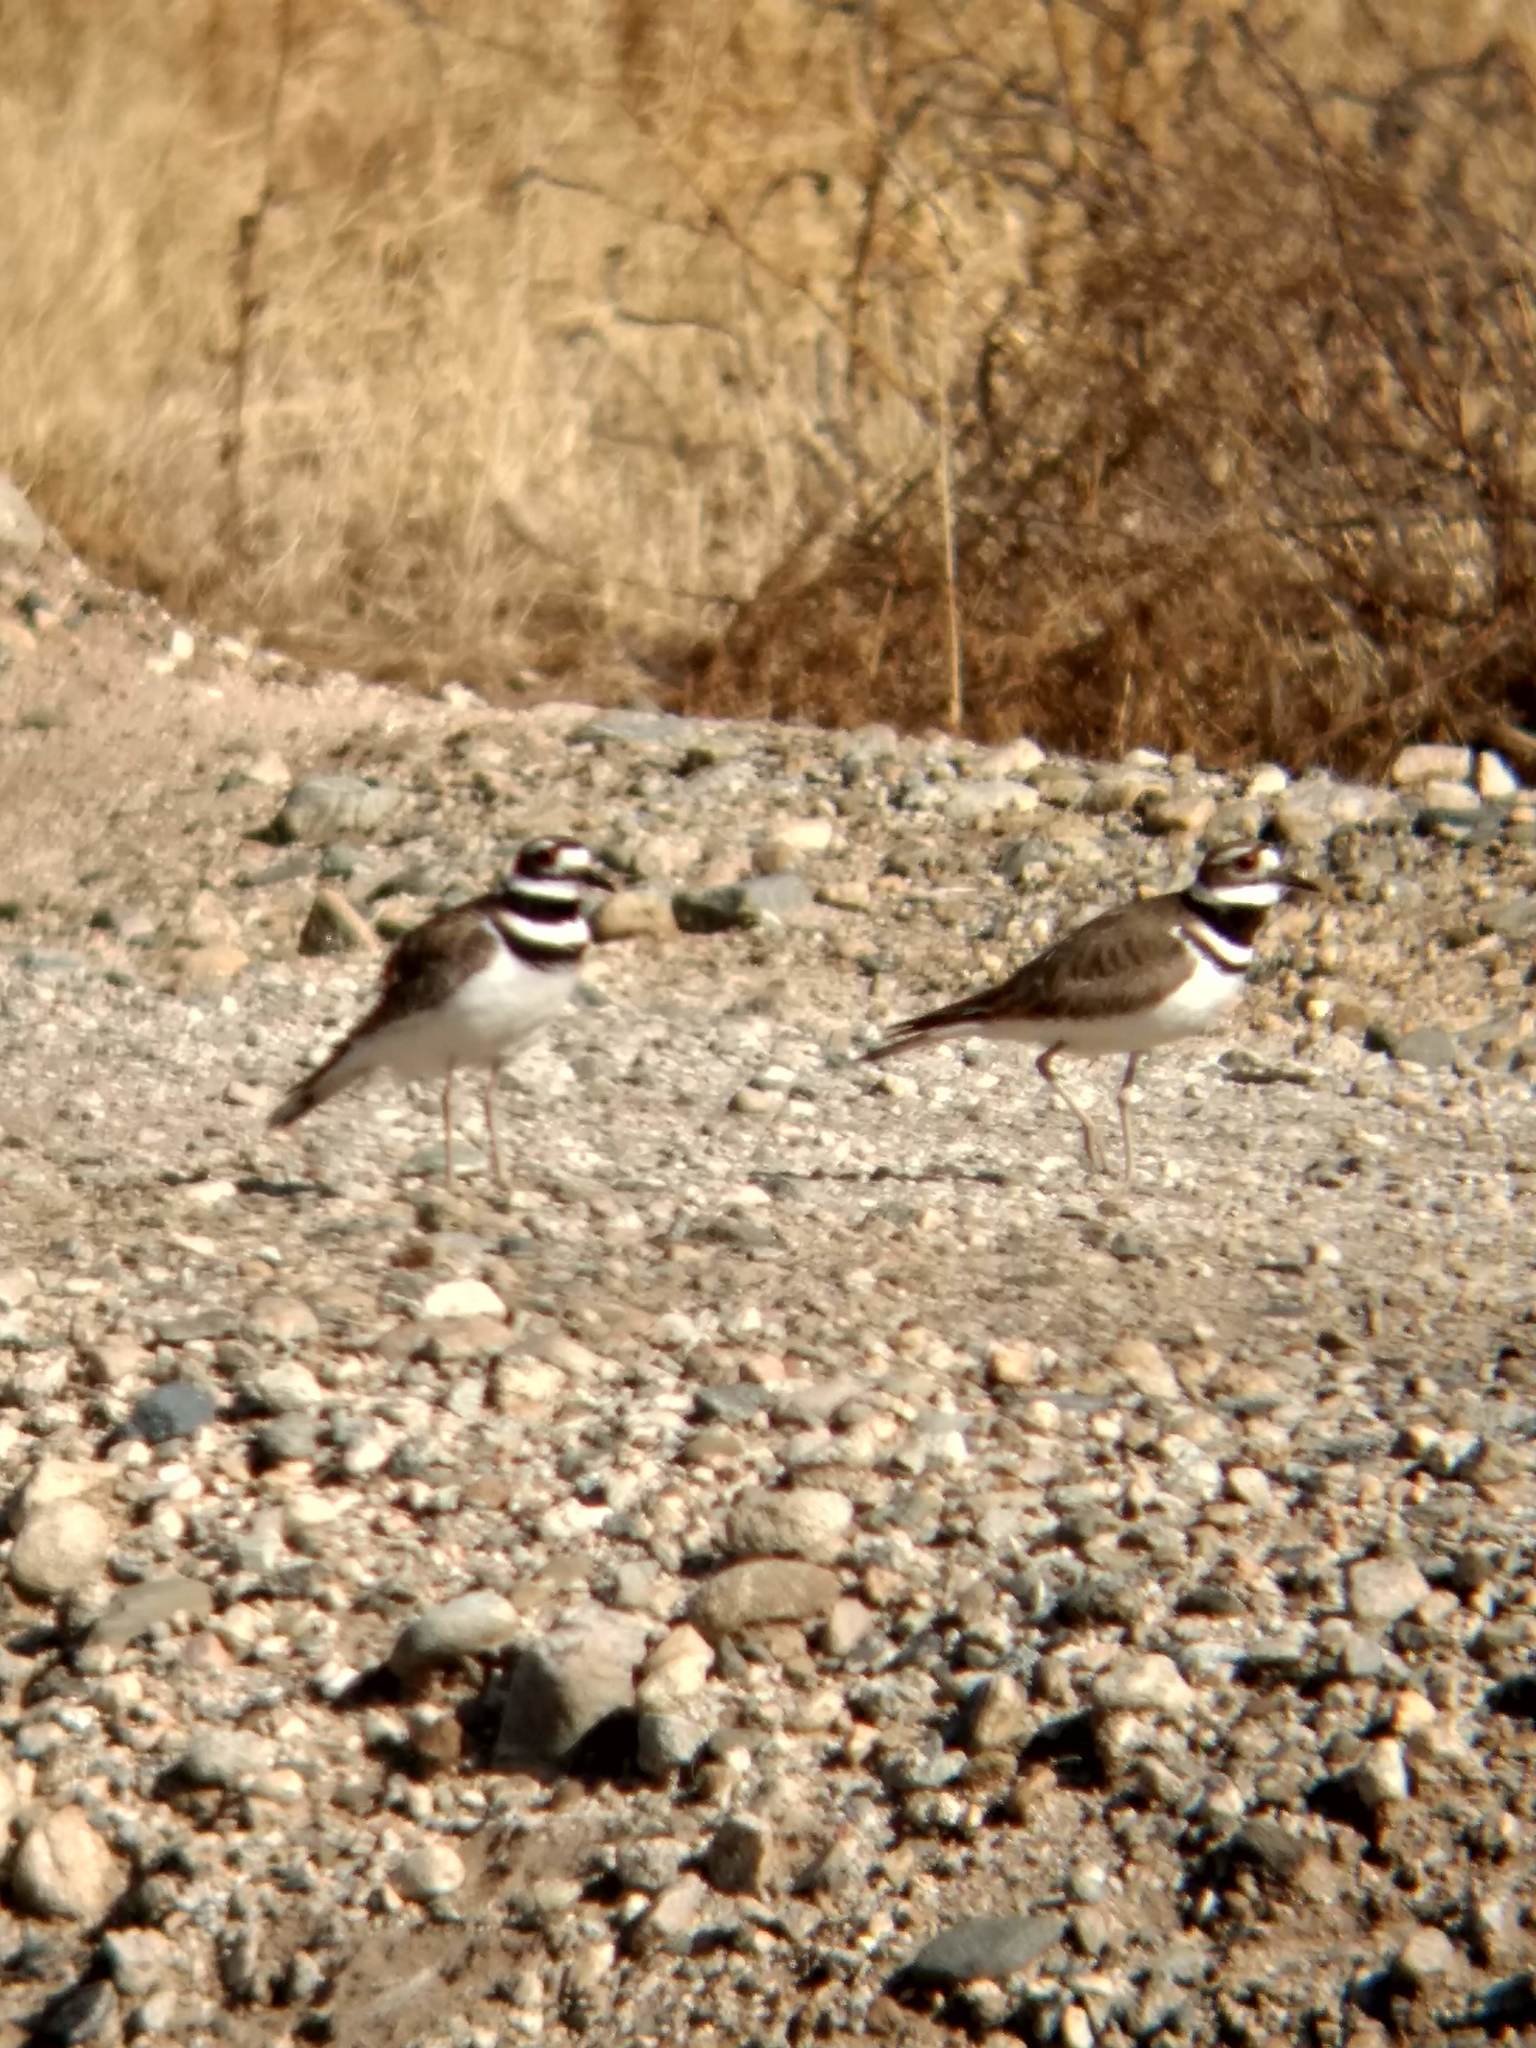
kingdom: Animalia
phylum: Chordata
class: Aves
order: Charadriiformes
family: Charadriidae
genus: Charadrius
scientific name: Charadrius vociferus
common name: Killdeer
